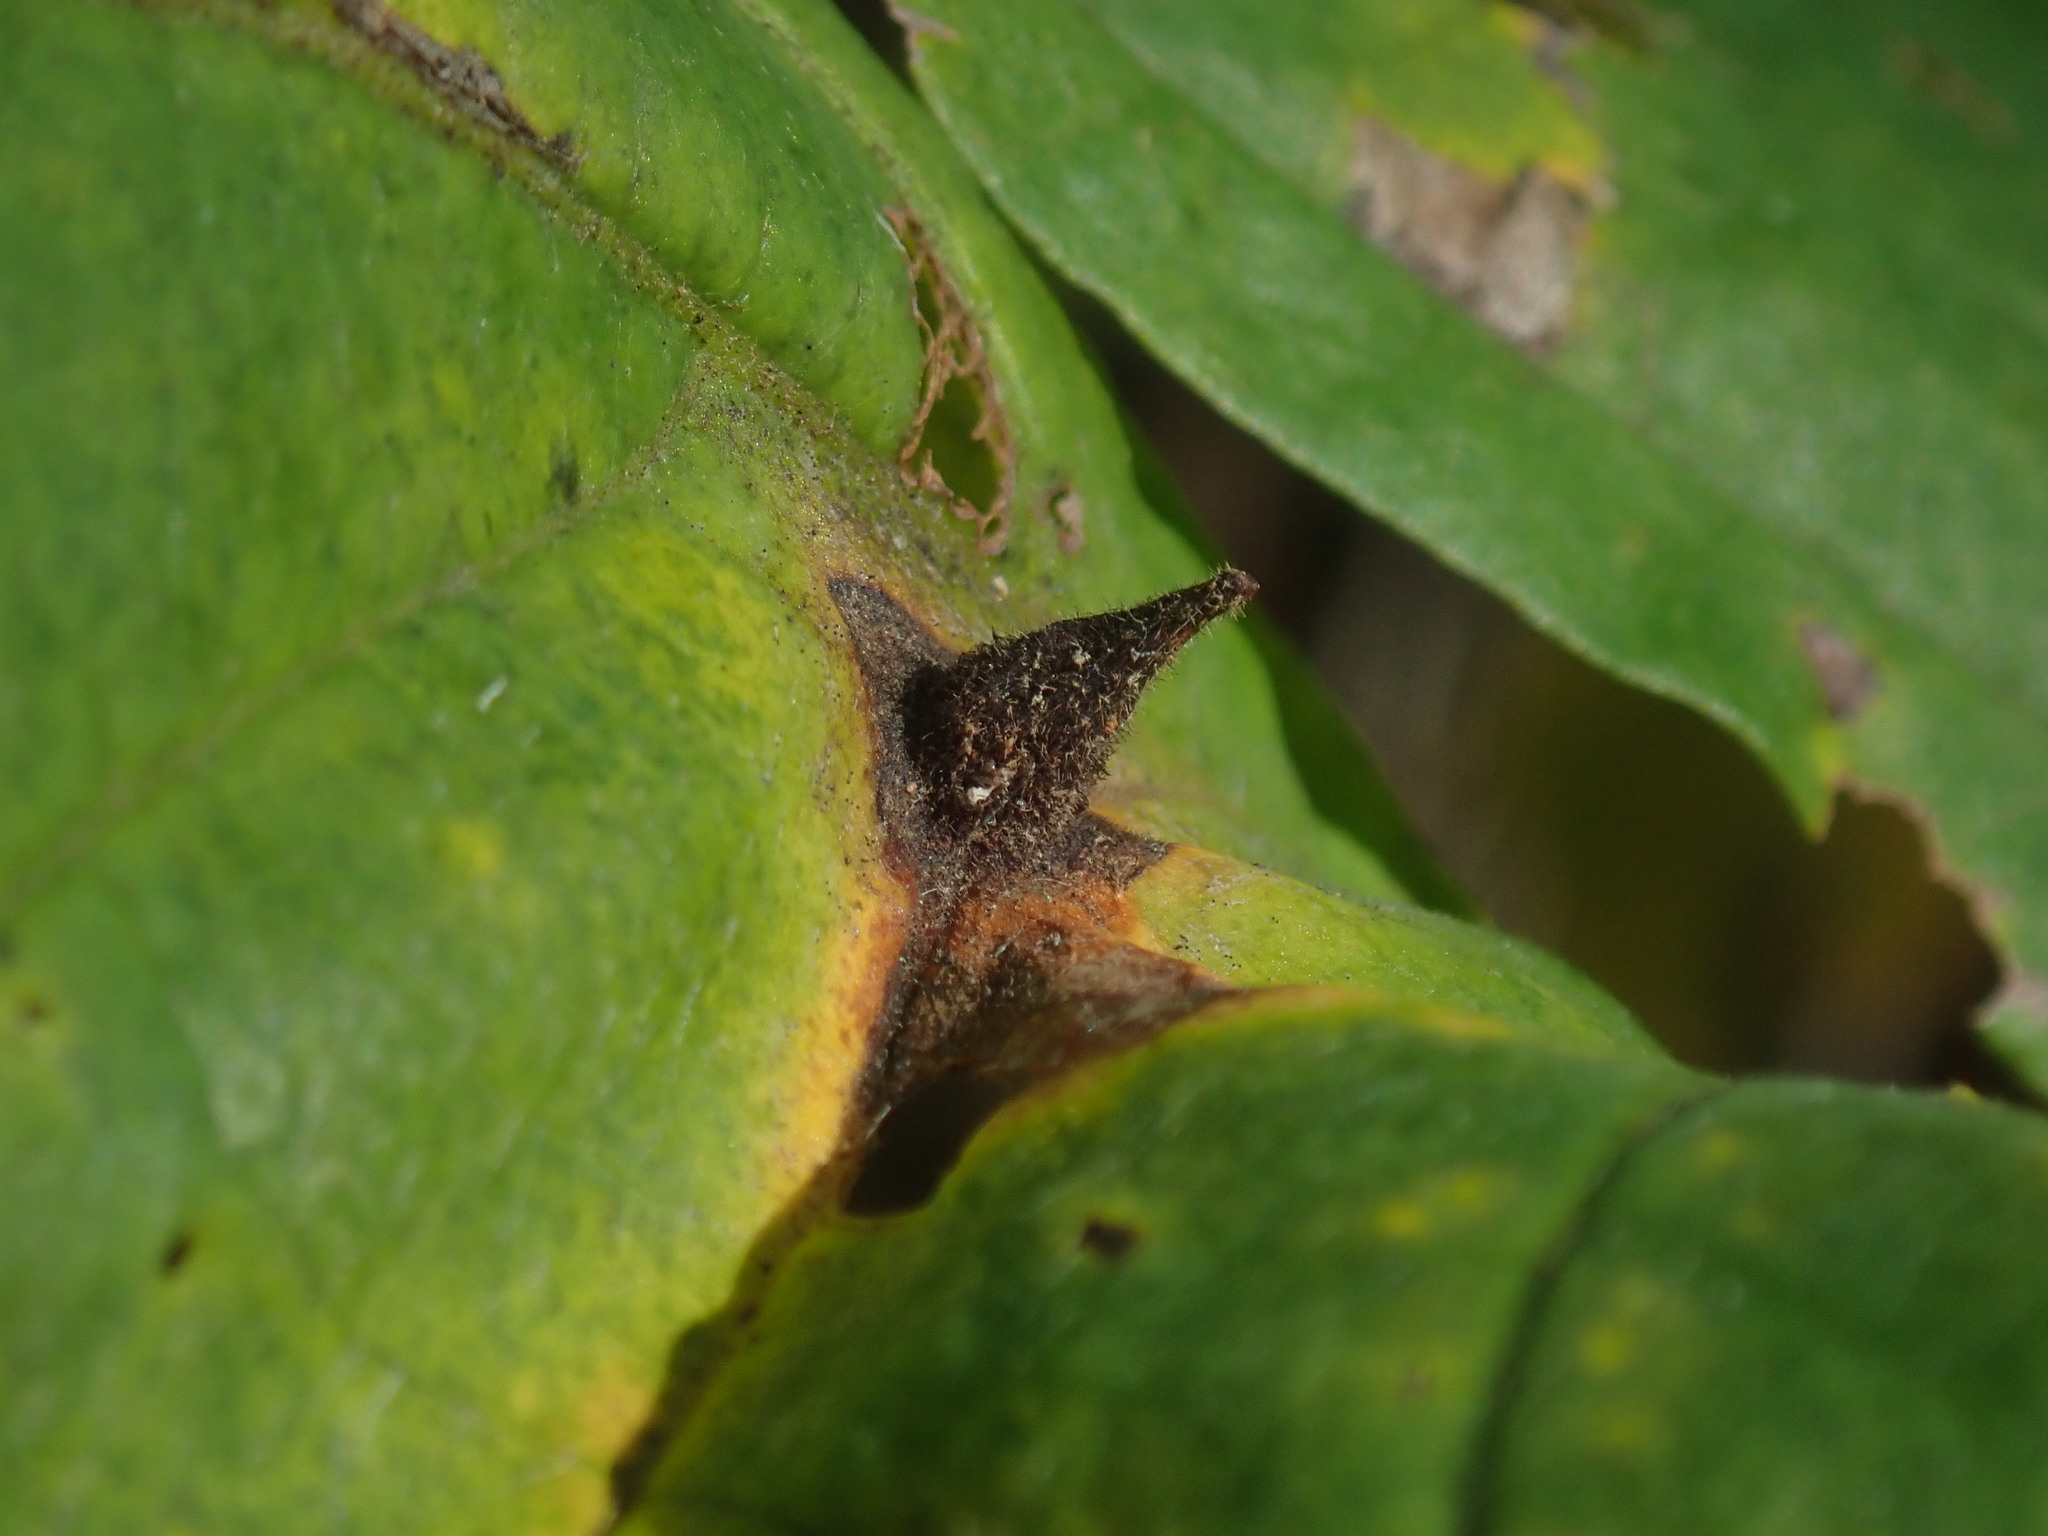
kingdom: Animalia
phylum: Arthropoda
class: Insecta
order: Hemiptera
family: Aphididae
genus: Hormaphis
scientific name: Hormaphis hamamelidis
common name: Witch-hazel cone gall aphid
